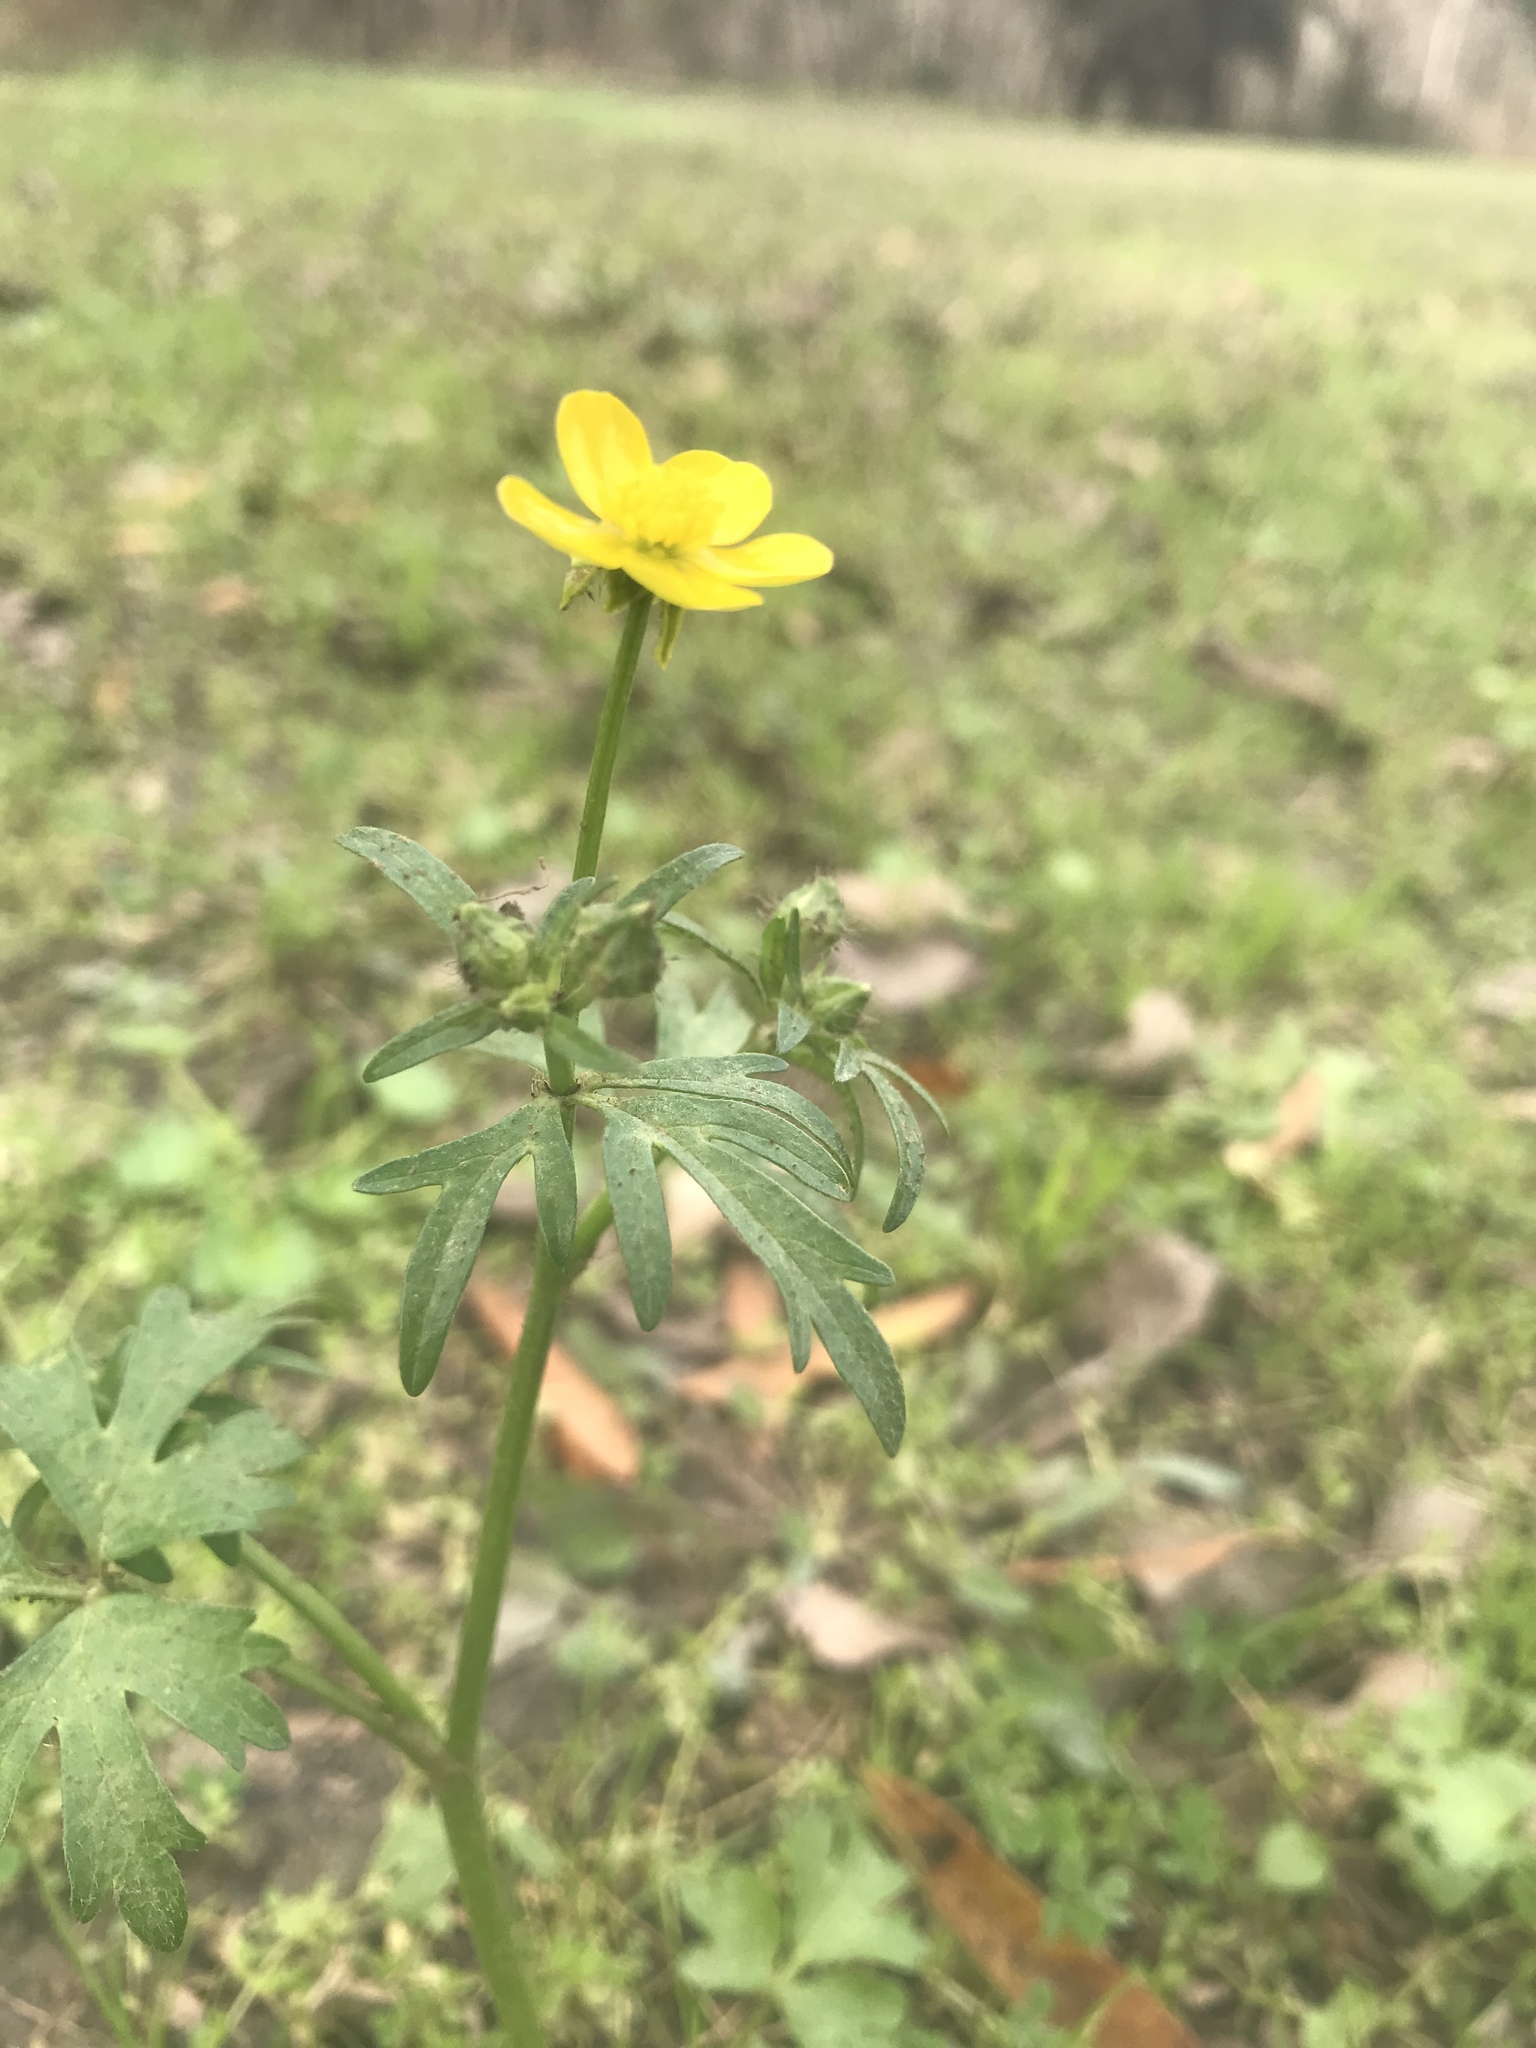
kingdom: Plantae
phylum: Tracheophyta
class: Magnoliopsida
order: Ranunculales
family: Ranunculaceae
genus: Ranunculus
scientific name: Ranunculus repens
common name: Creeping buttercup
